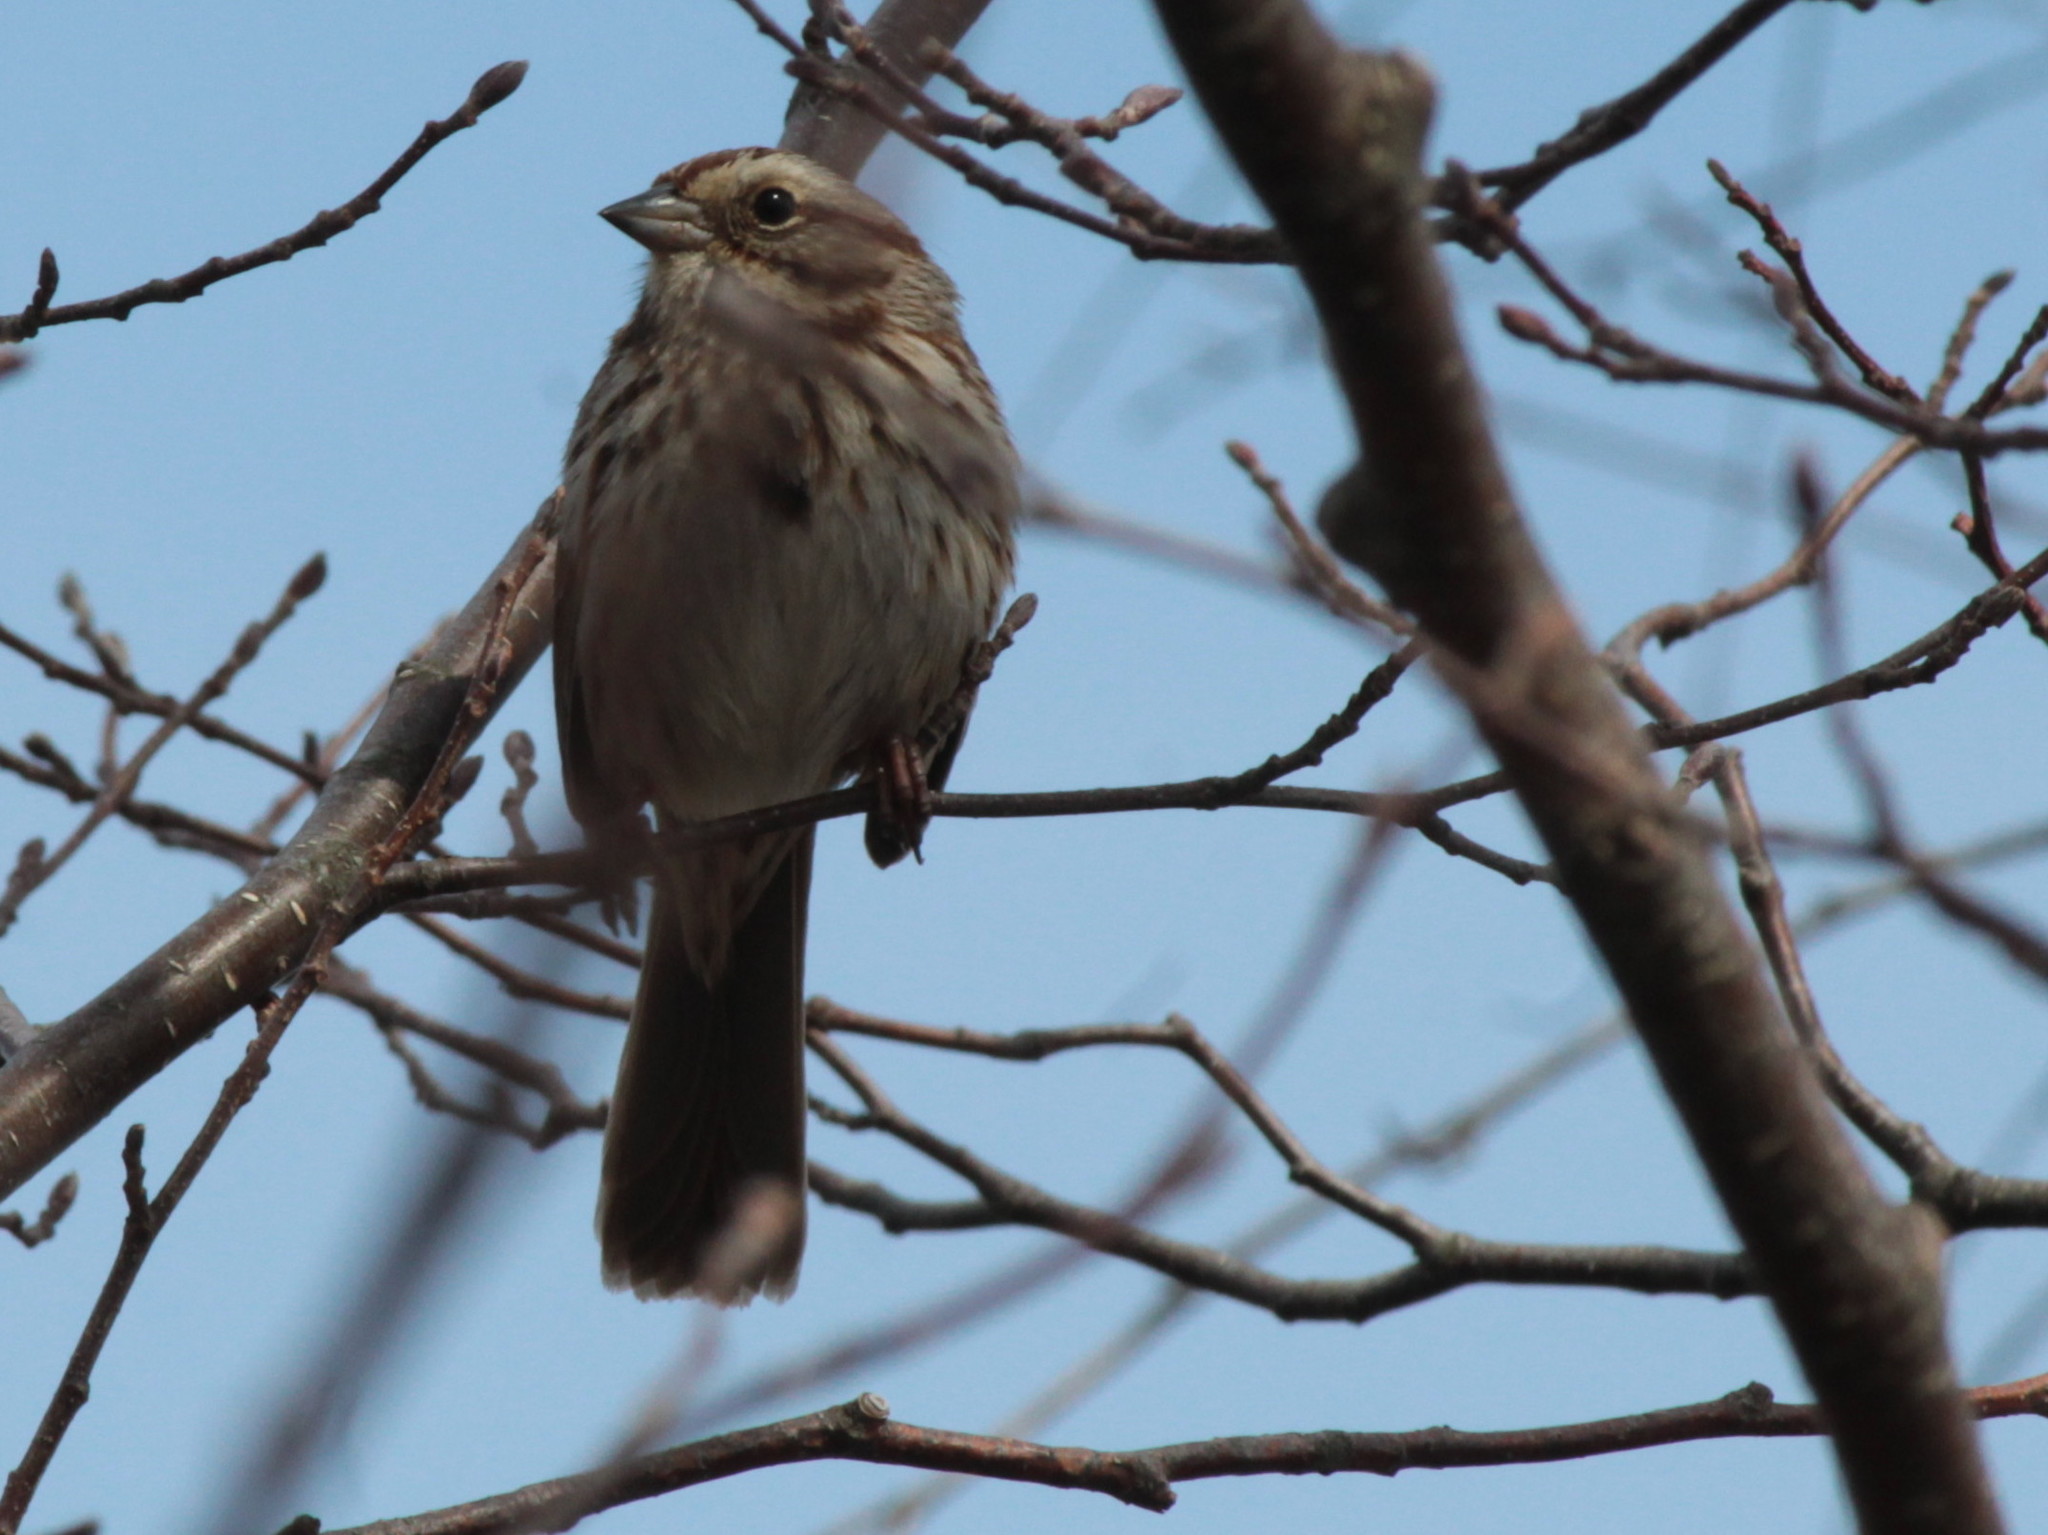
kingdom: Animalia
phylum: Chordata
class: Aves
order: Passeriformes
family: Passerellidae
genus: Melospiza
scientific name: Melospiza melodia
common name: Song sparrow
